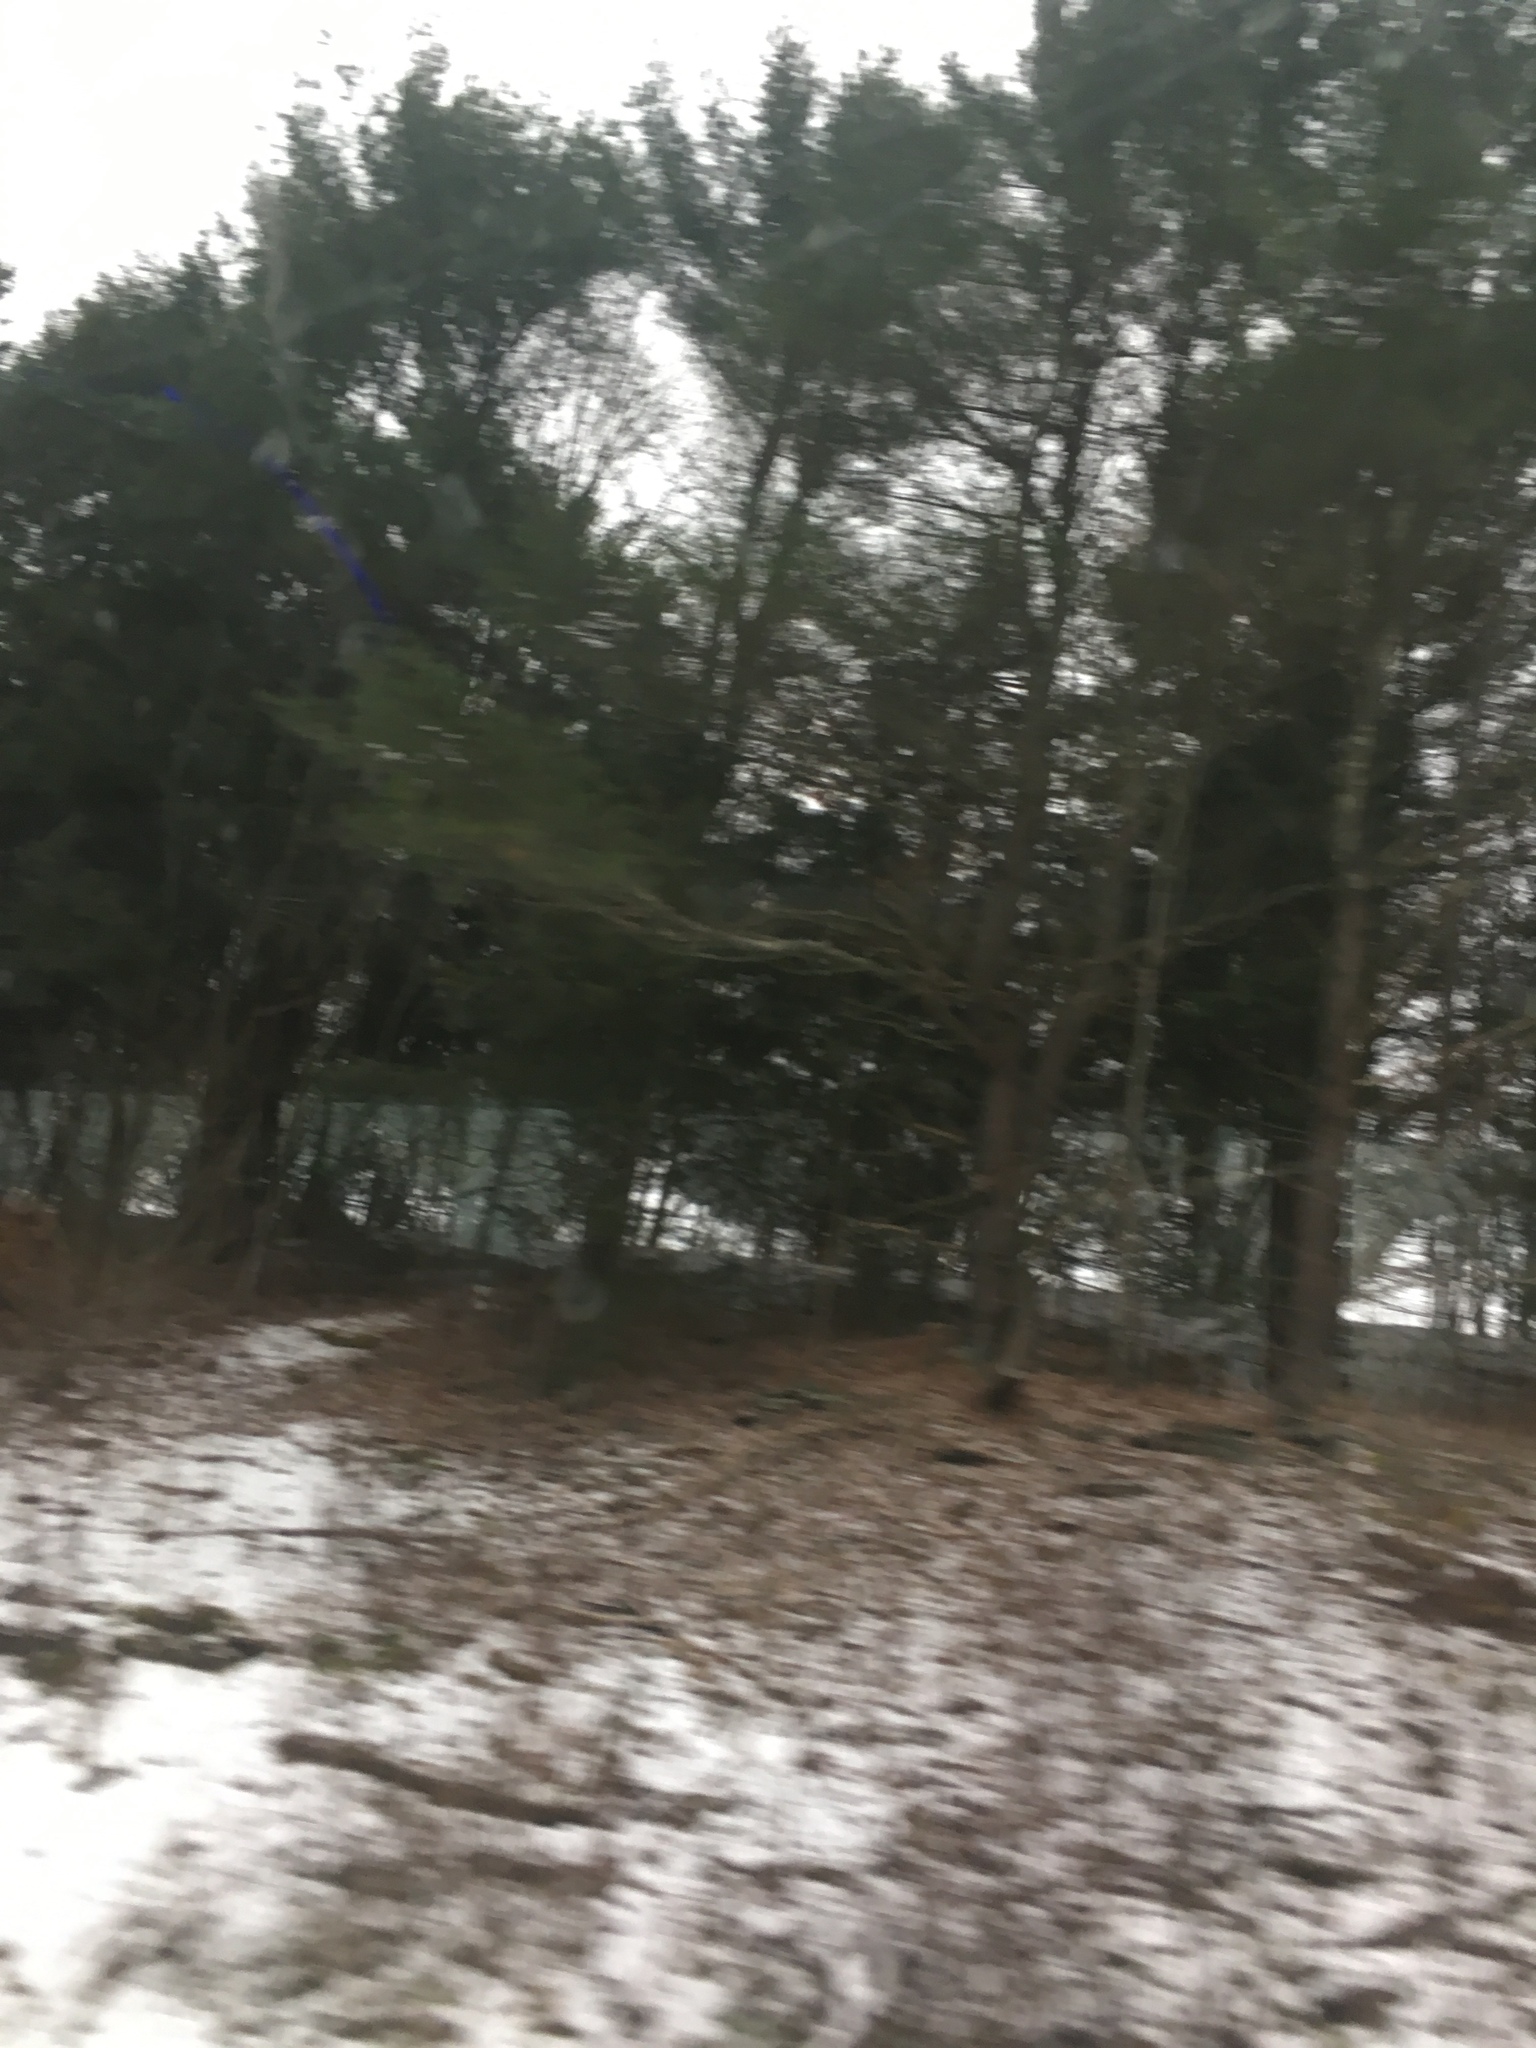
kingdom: Plantae
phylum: Tracheophyta
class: Pinopsida
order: Pinales
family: Pinaceae
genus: Pinus
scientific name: Pinus strobus
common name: Weymouth pine
